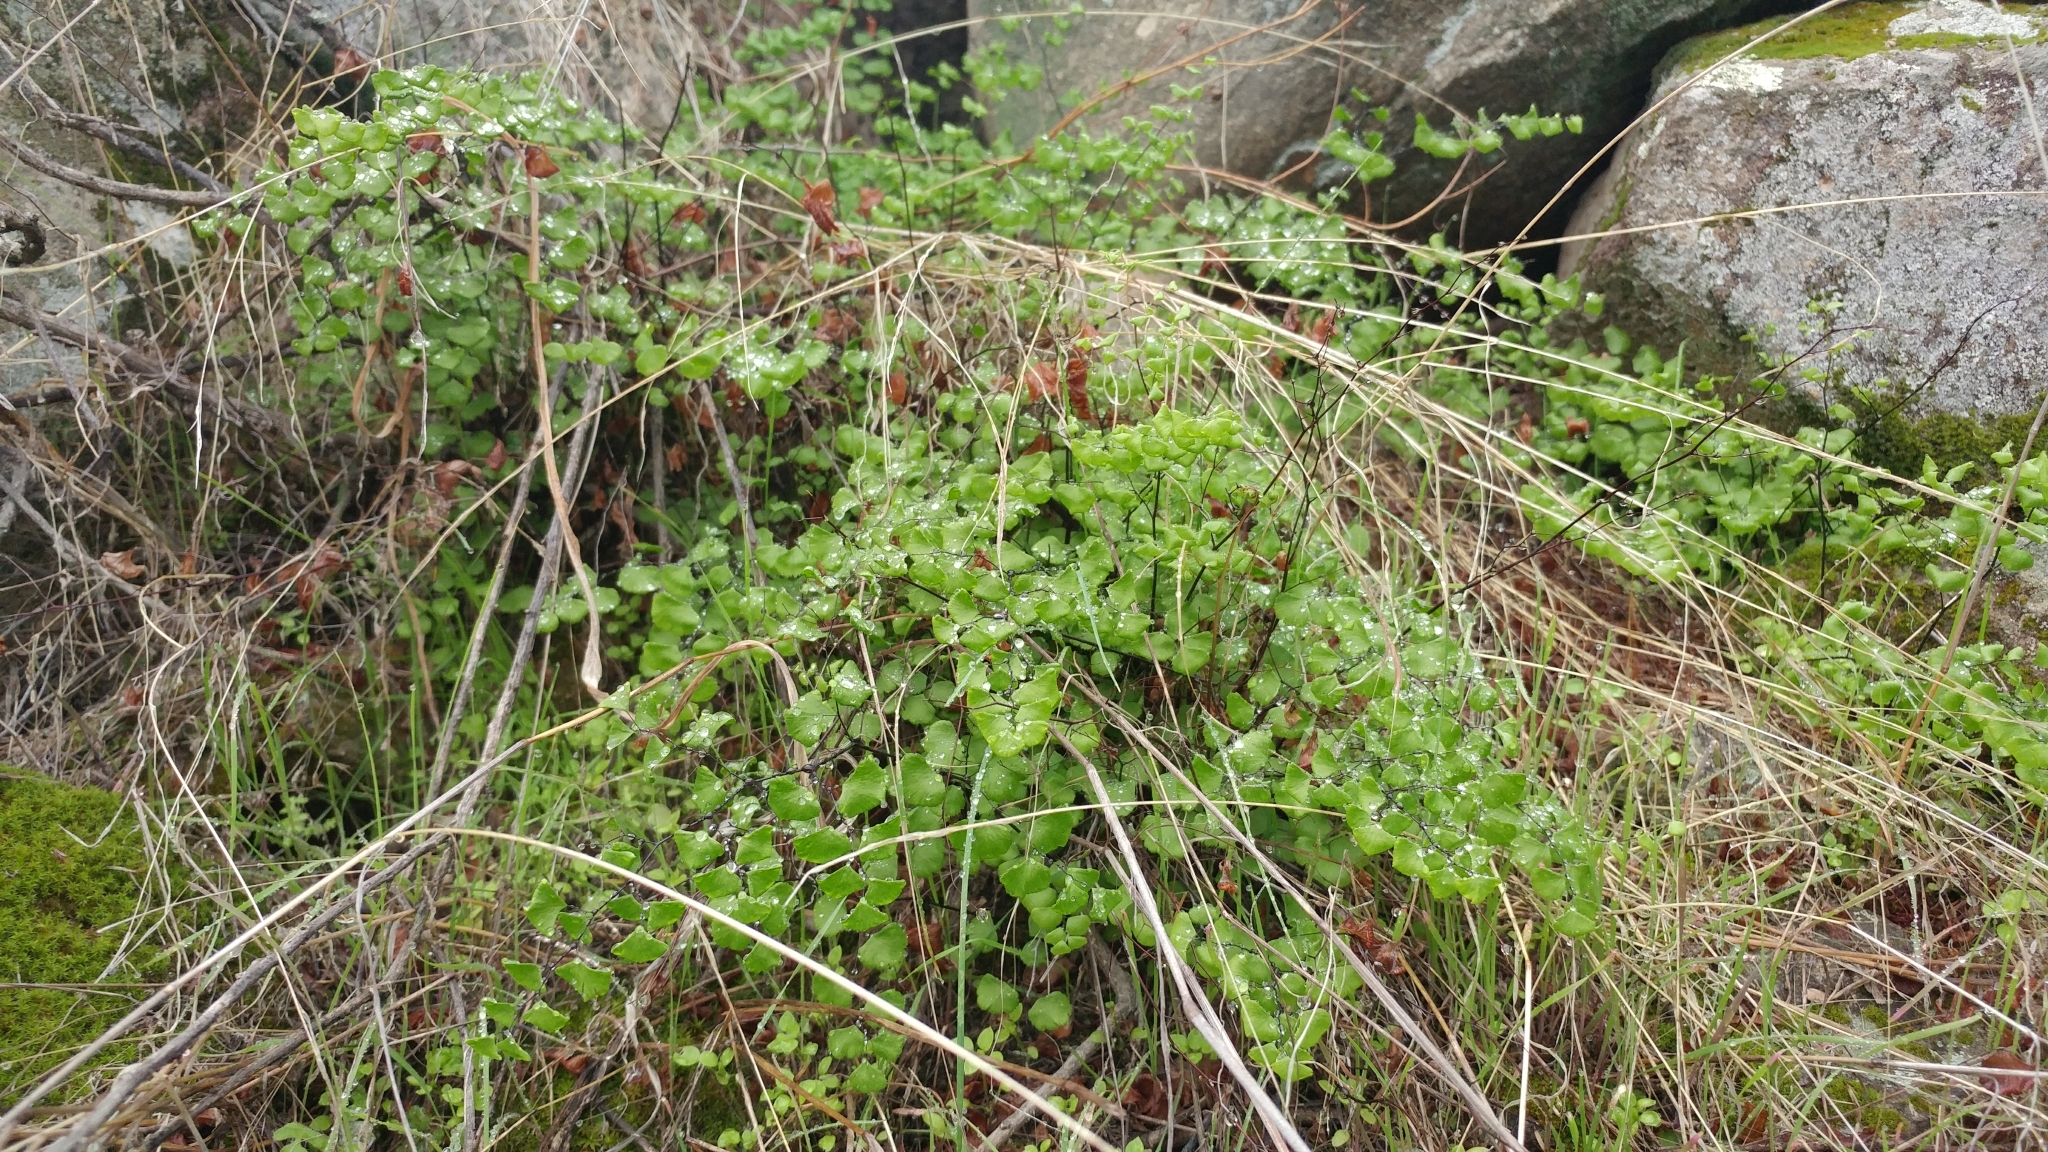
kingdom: Plantae
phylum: Tracheophyta
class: Polypodiopsida
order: Polypodiales
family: Pteridaceae
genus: Adiantum
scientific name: Adiantum jordanii
